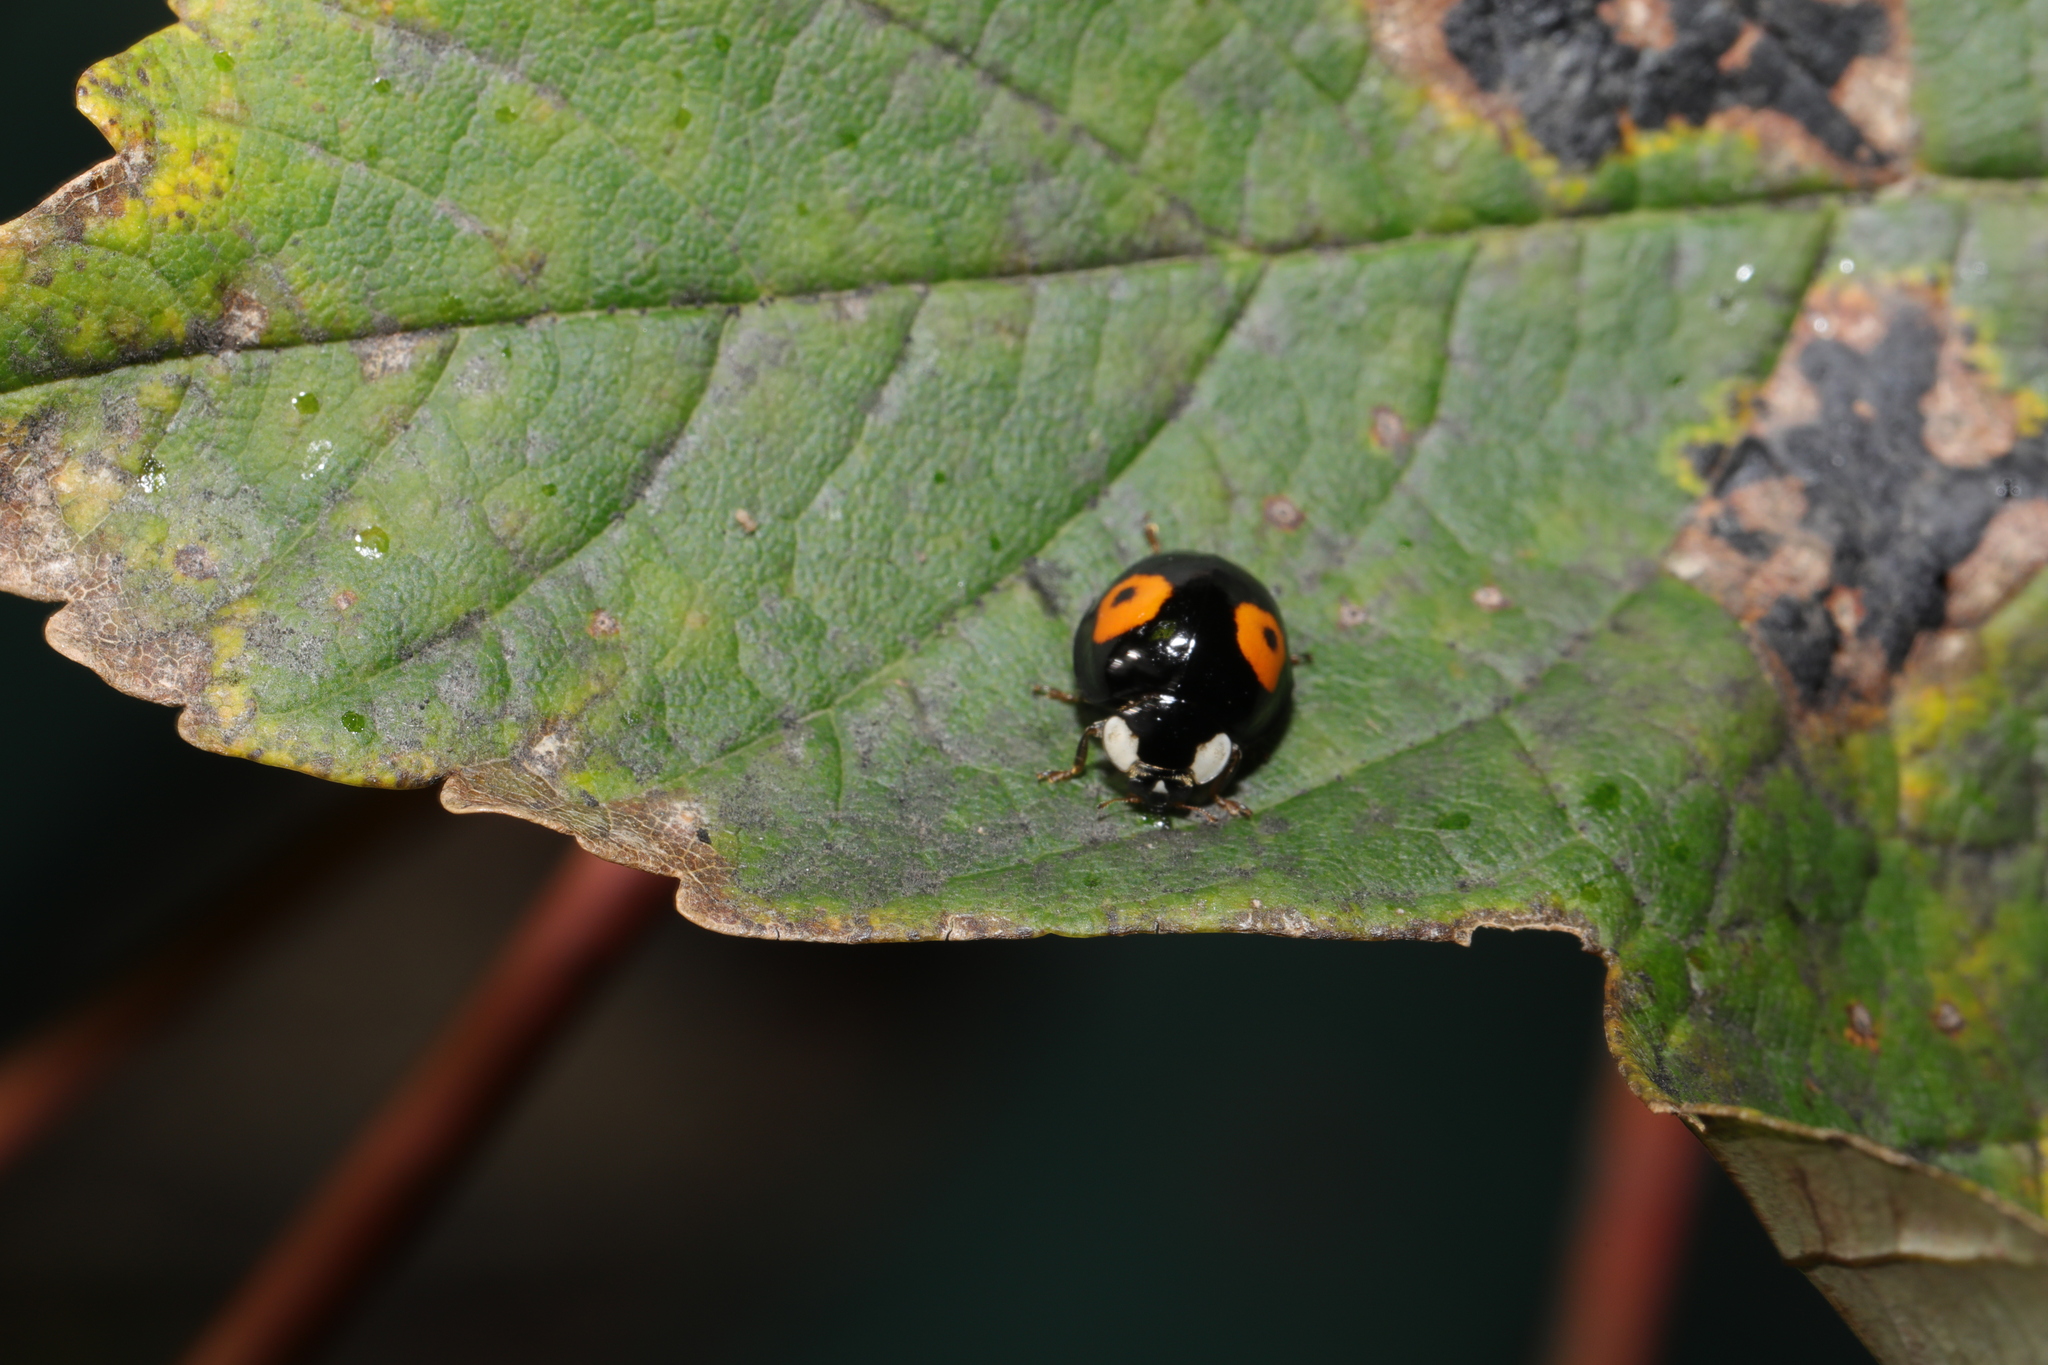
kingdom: Animalia
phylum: Arthropoda
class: Insecta
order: Coleoptera
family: Coccinellidae
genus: Harmonia
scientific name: Harmonia axyridis
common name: Harlequin ladybird
